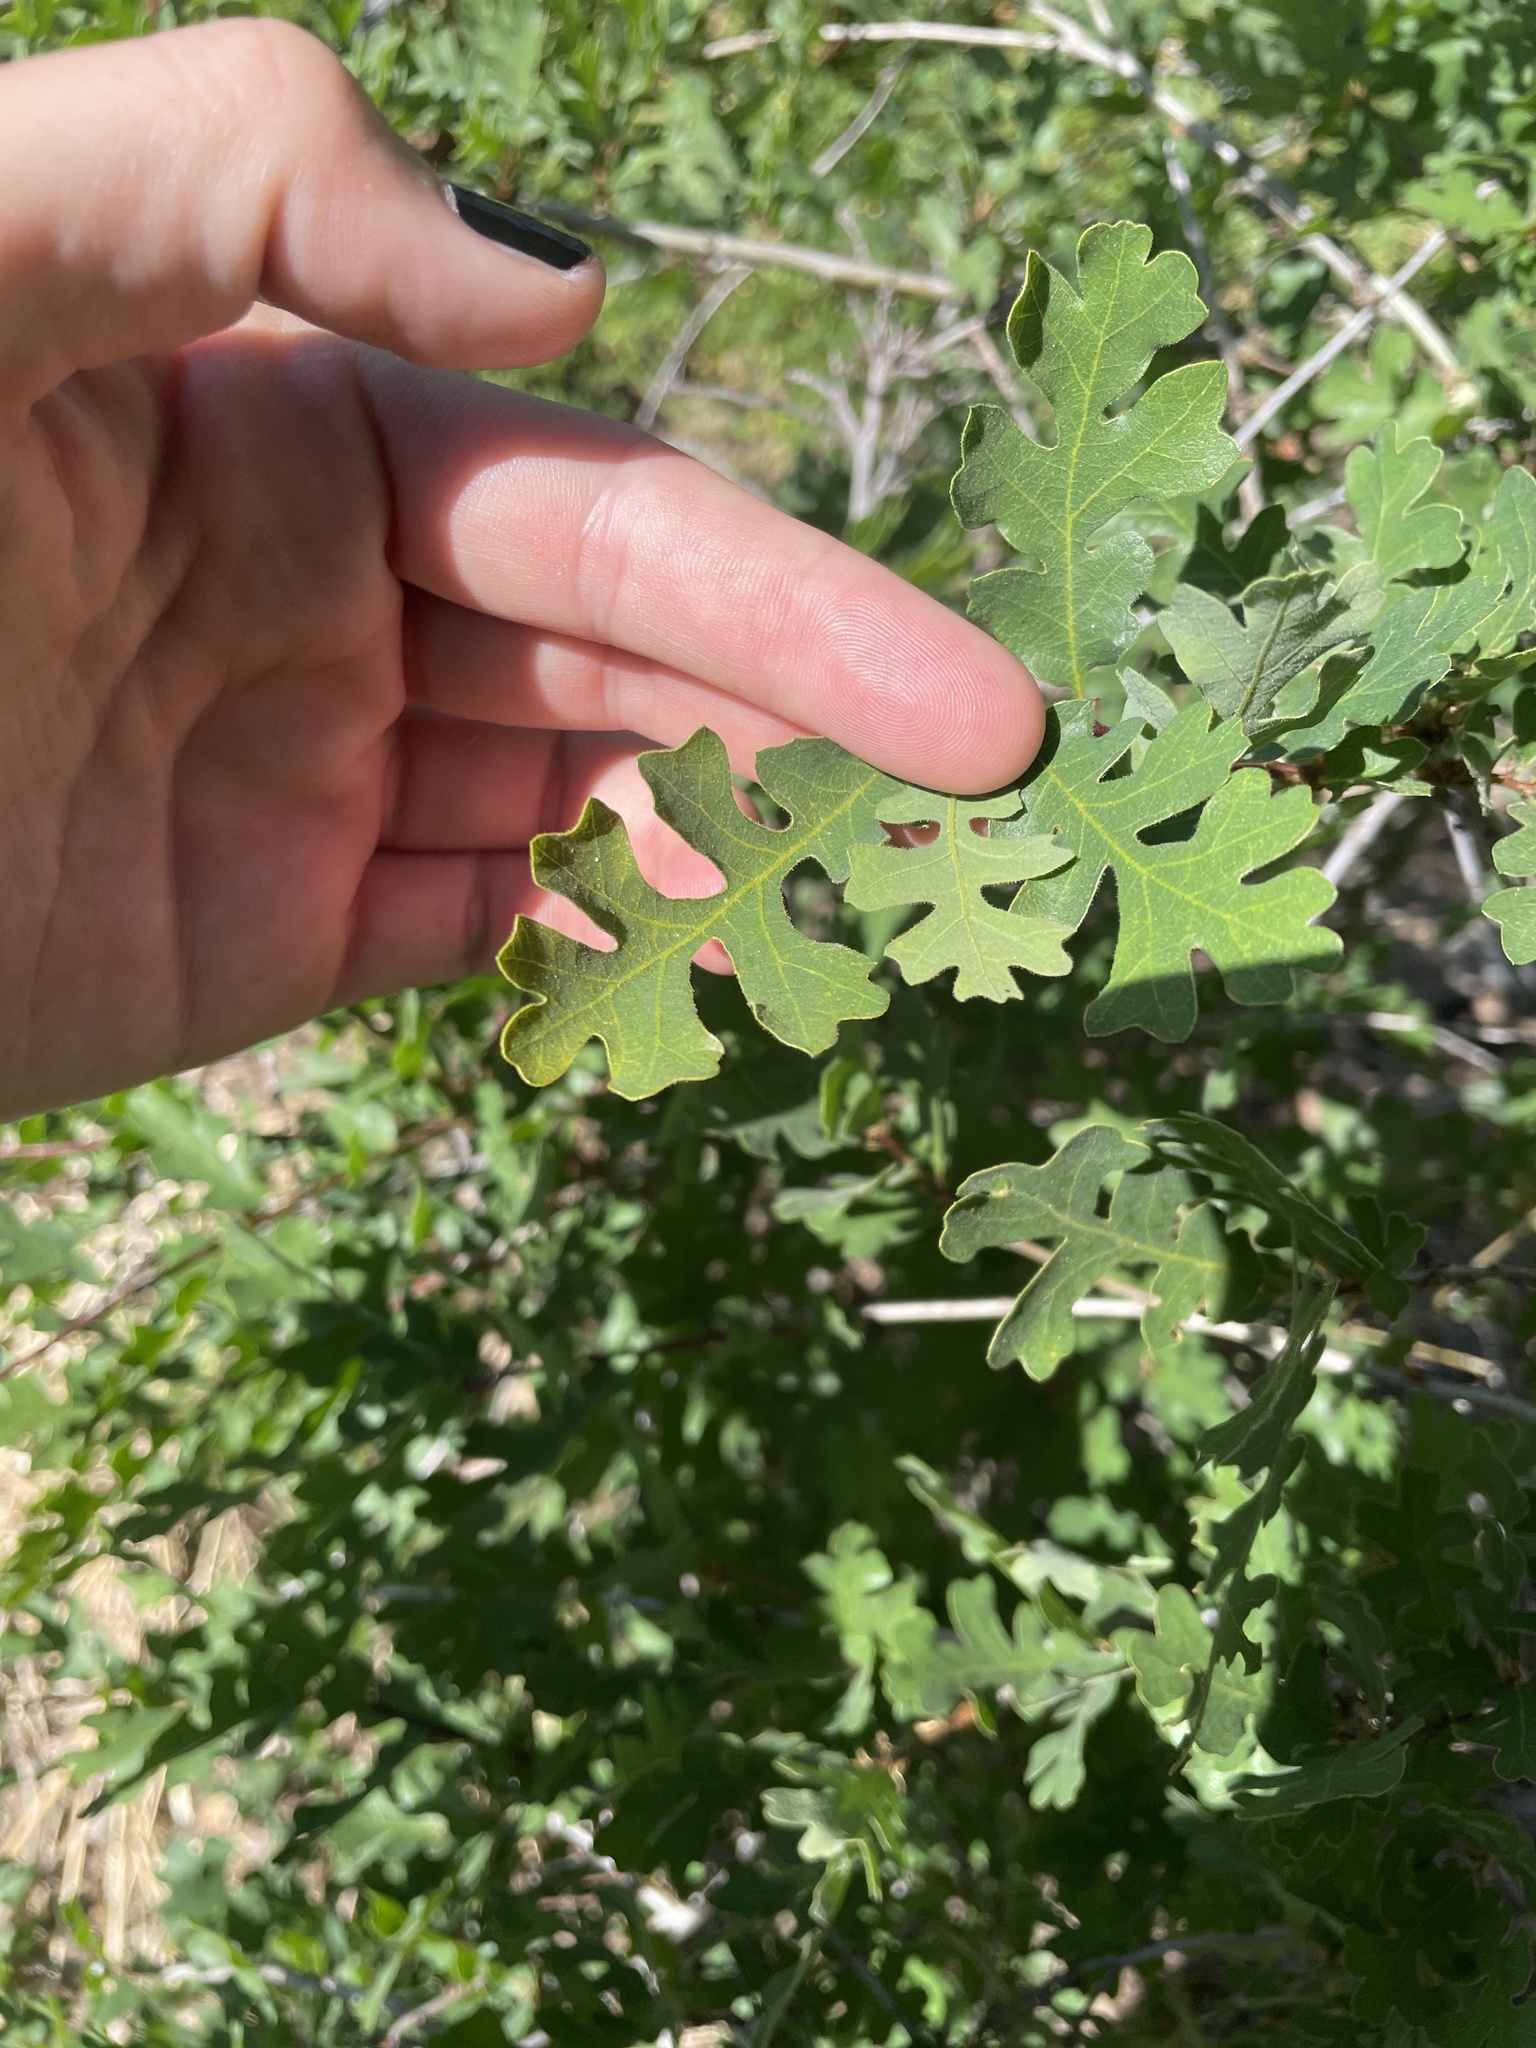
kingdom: Plantae
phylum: Tracheophyta
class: Magnoliopsida
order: Fagales
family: Fagaceae
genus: Quercus
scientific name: Quercus lobata
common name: Valley oak
